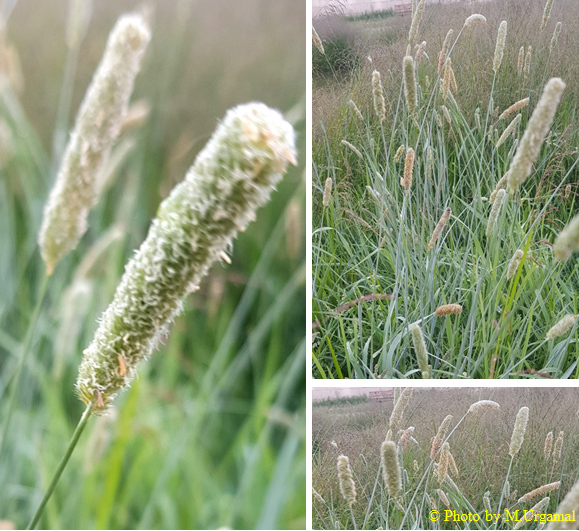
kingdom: Plantae
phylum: Tracheophyta
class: Liliopsida
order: Poales
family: Poaceae
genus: Alopecurus
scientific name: Alopecurus pratensis
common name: Meadow foxtail
